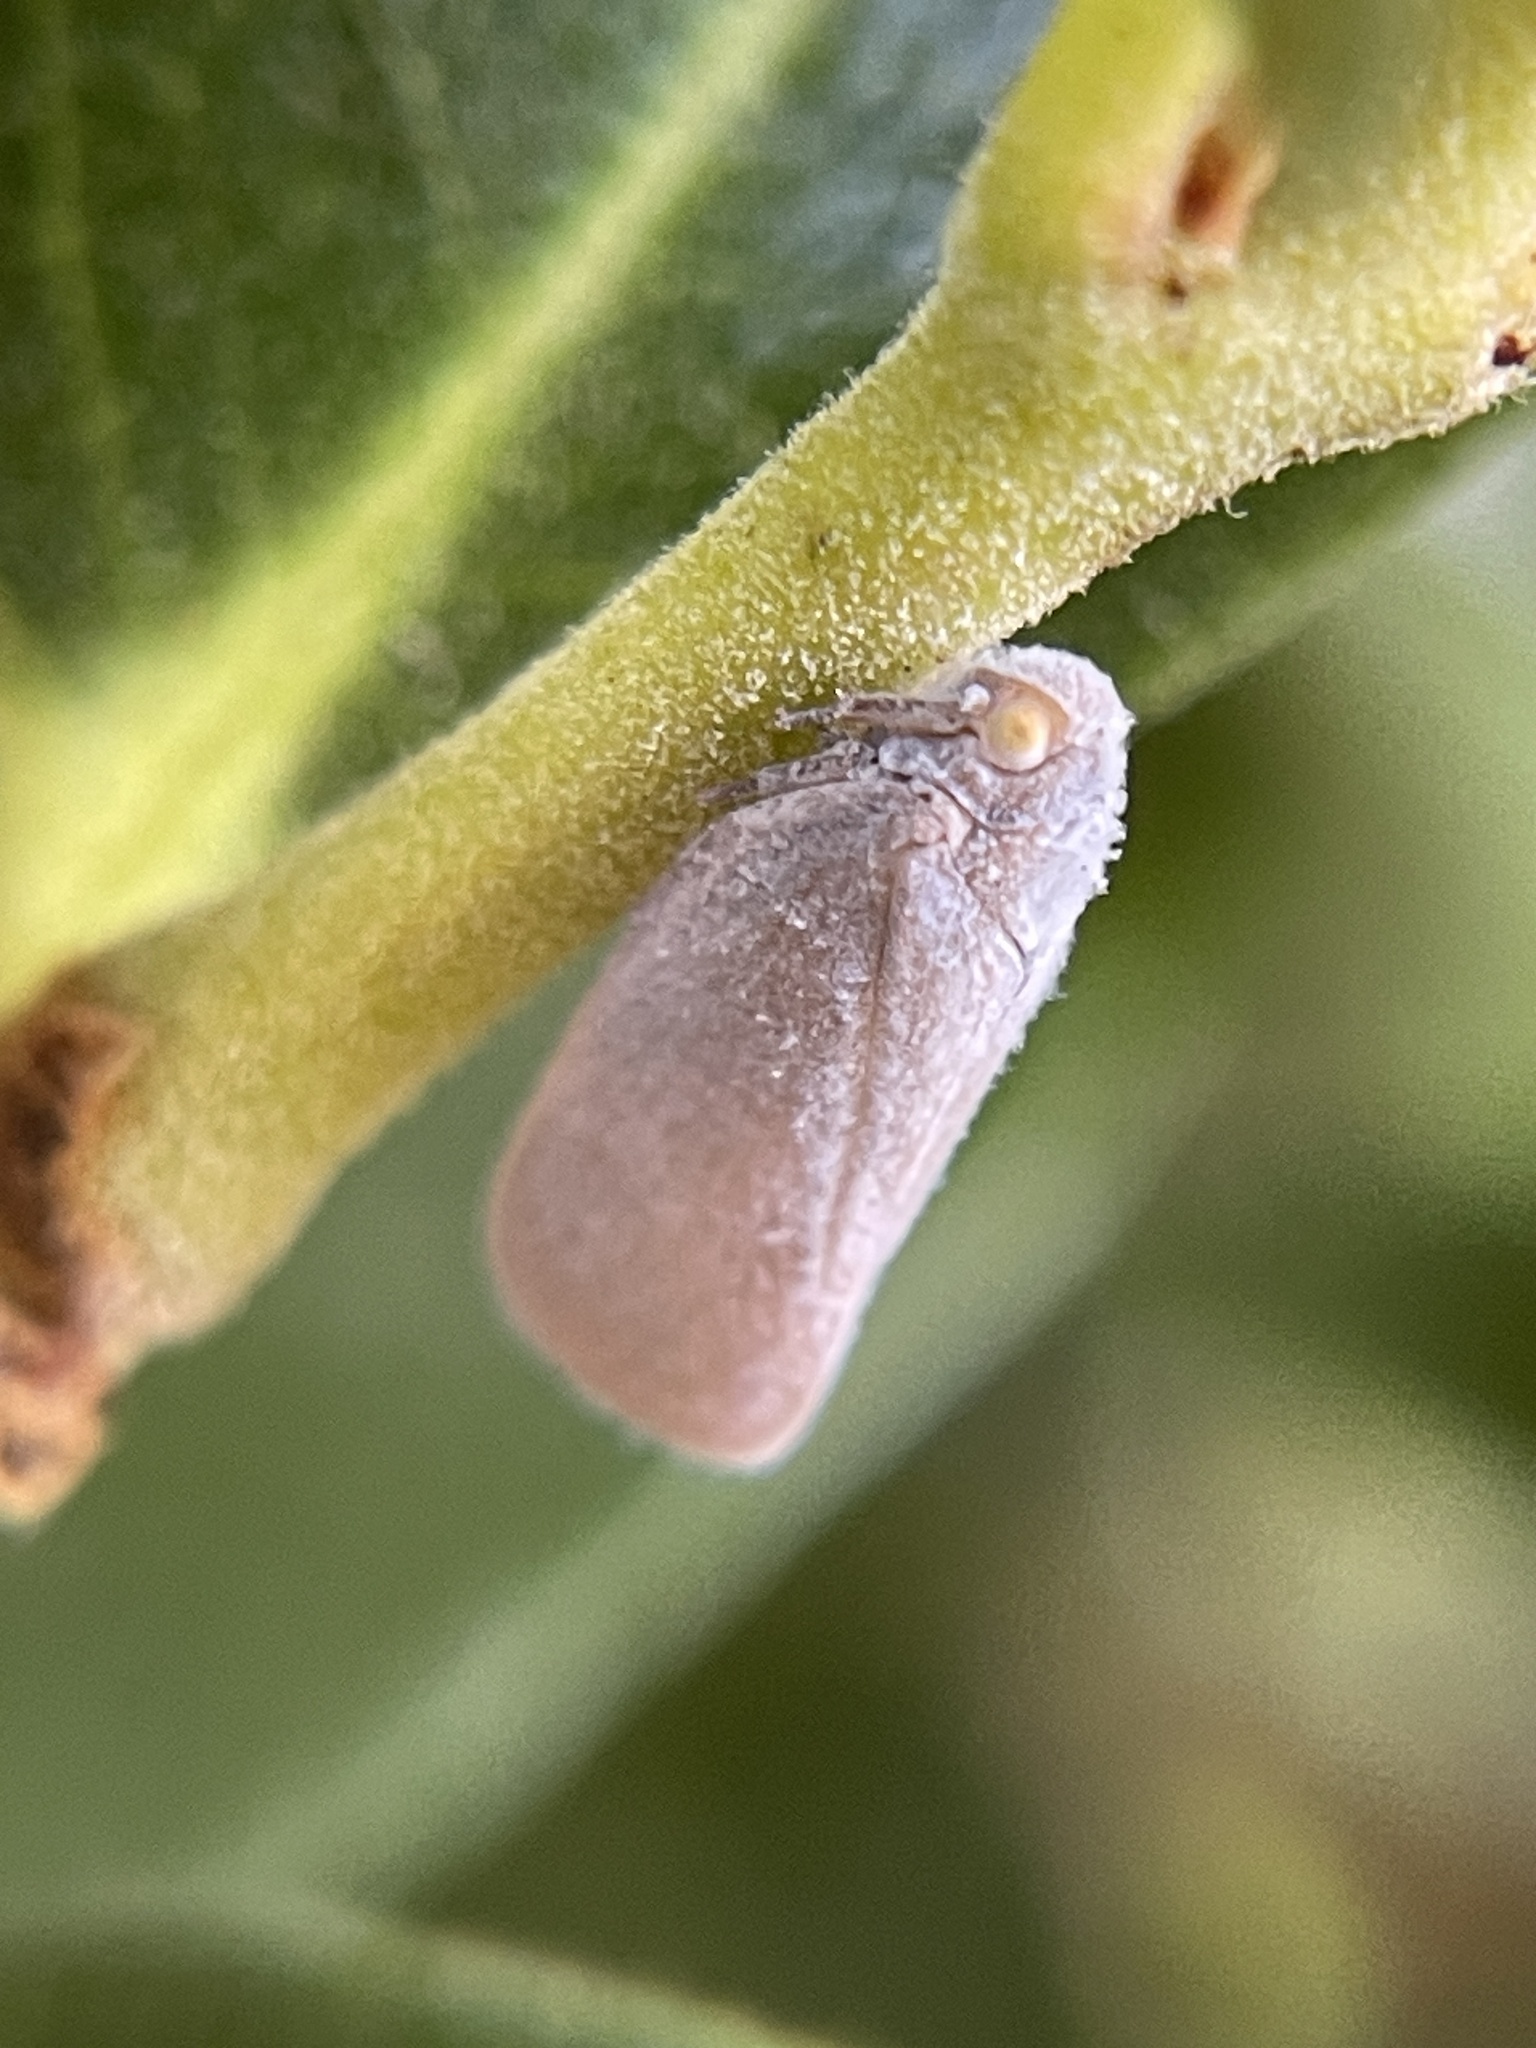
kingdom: Animalia
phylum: Arthropoda
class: Insecta
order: Hemiptera
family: Flatidae
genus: Anzora
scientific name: Anzora unicolor
